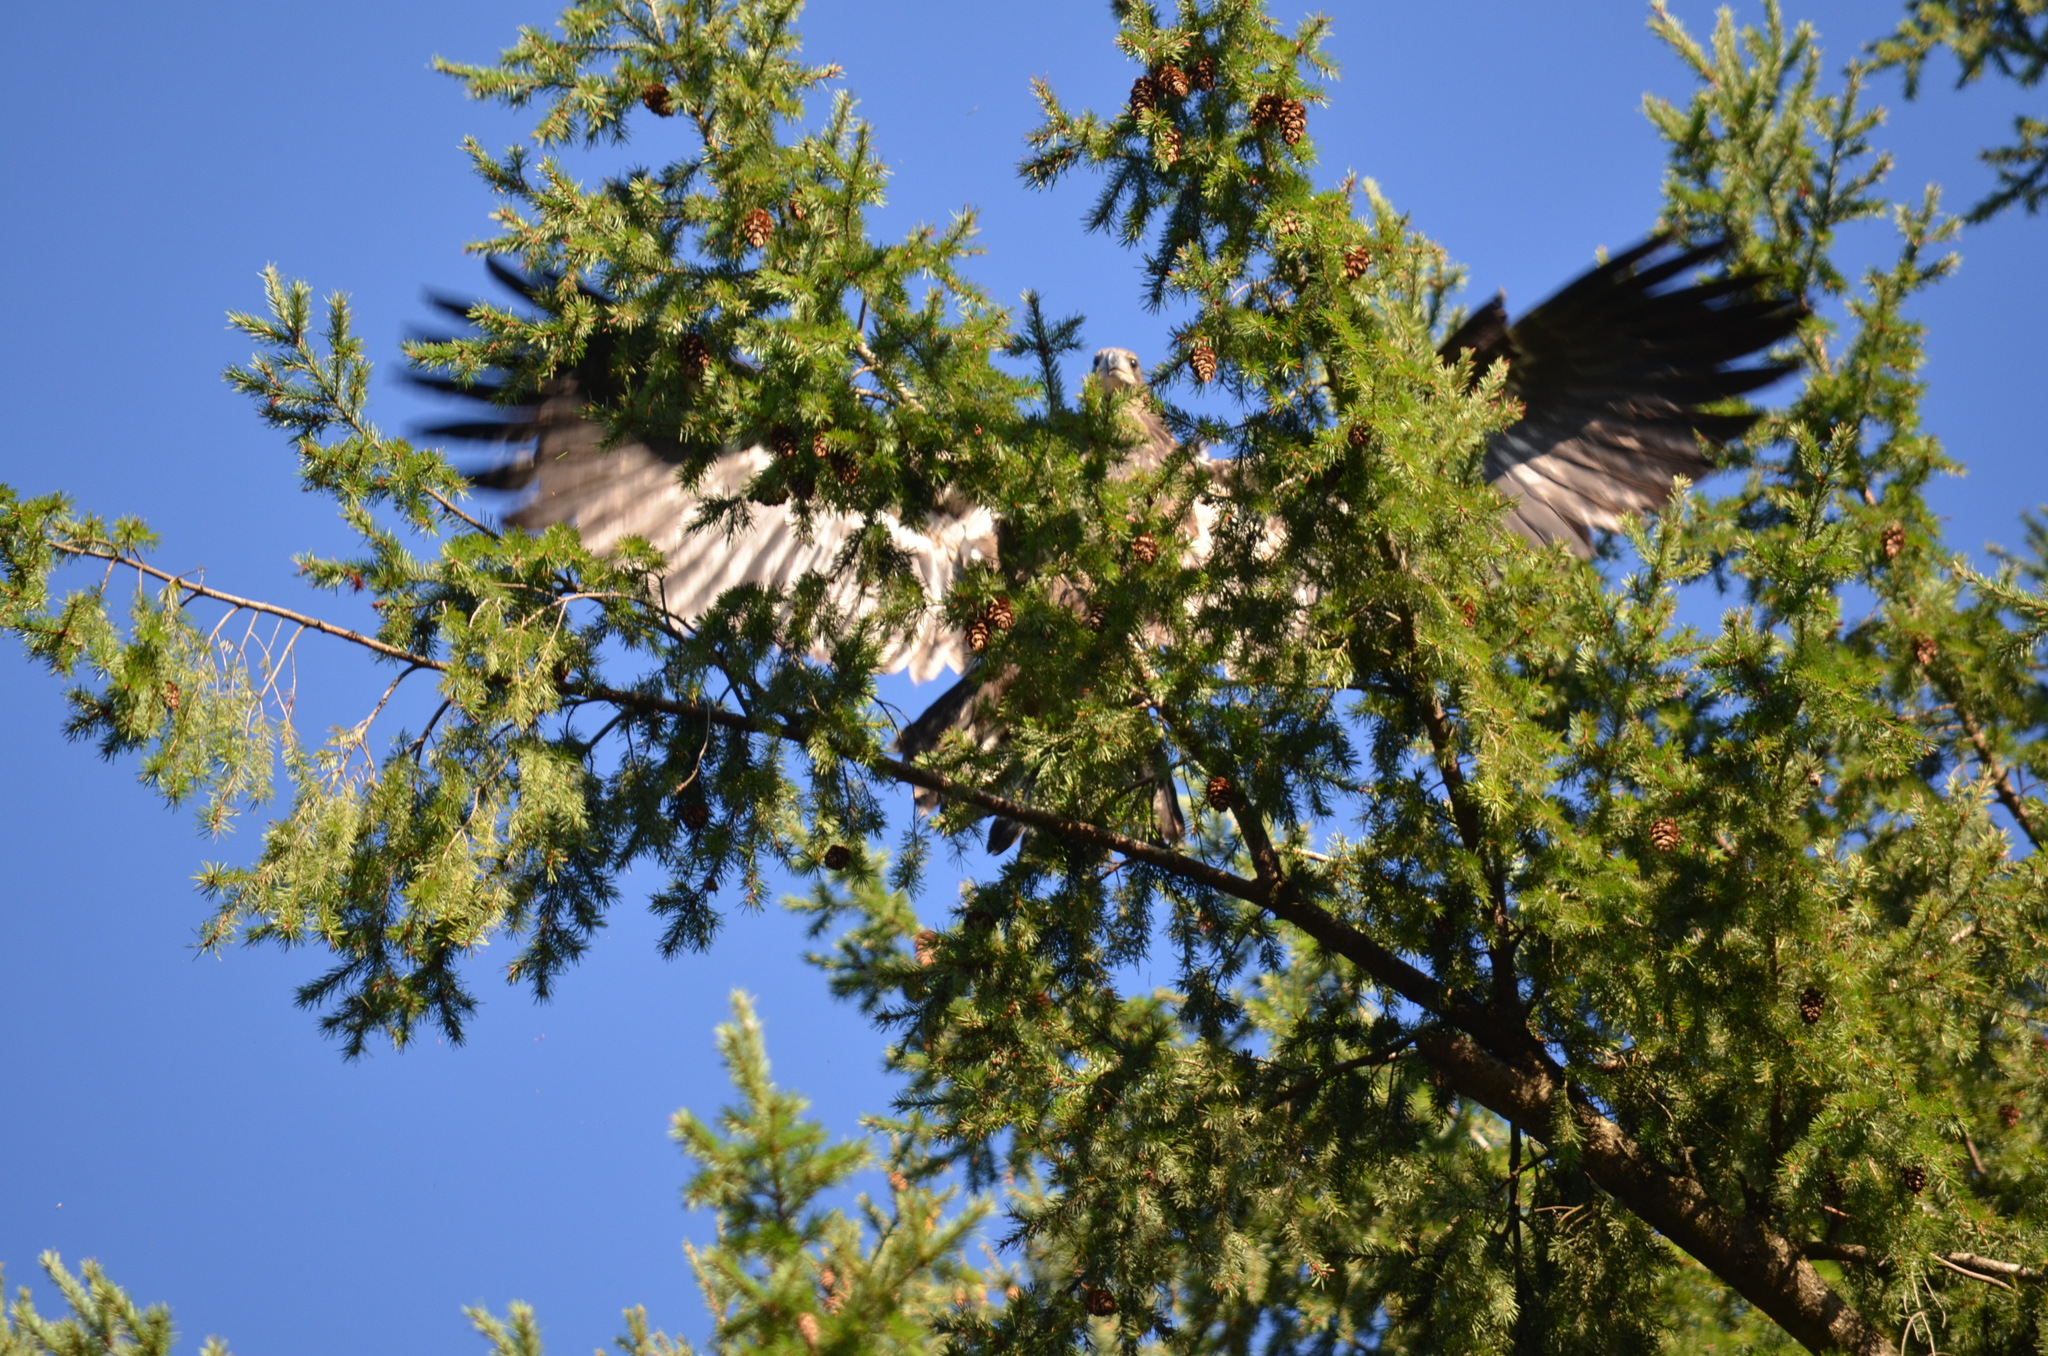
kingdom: Animalia
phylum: Chordata
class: Aves
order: Accipitriformes
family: Accipitridae
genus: Haliaeetus
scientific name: Haliaeetus leucocephalus
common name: Bald eagle
